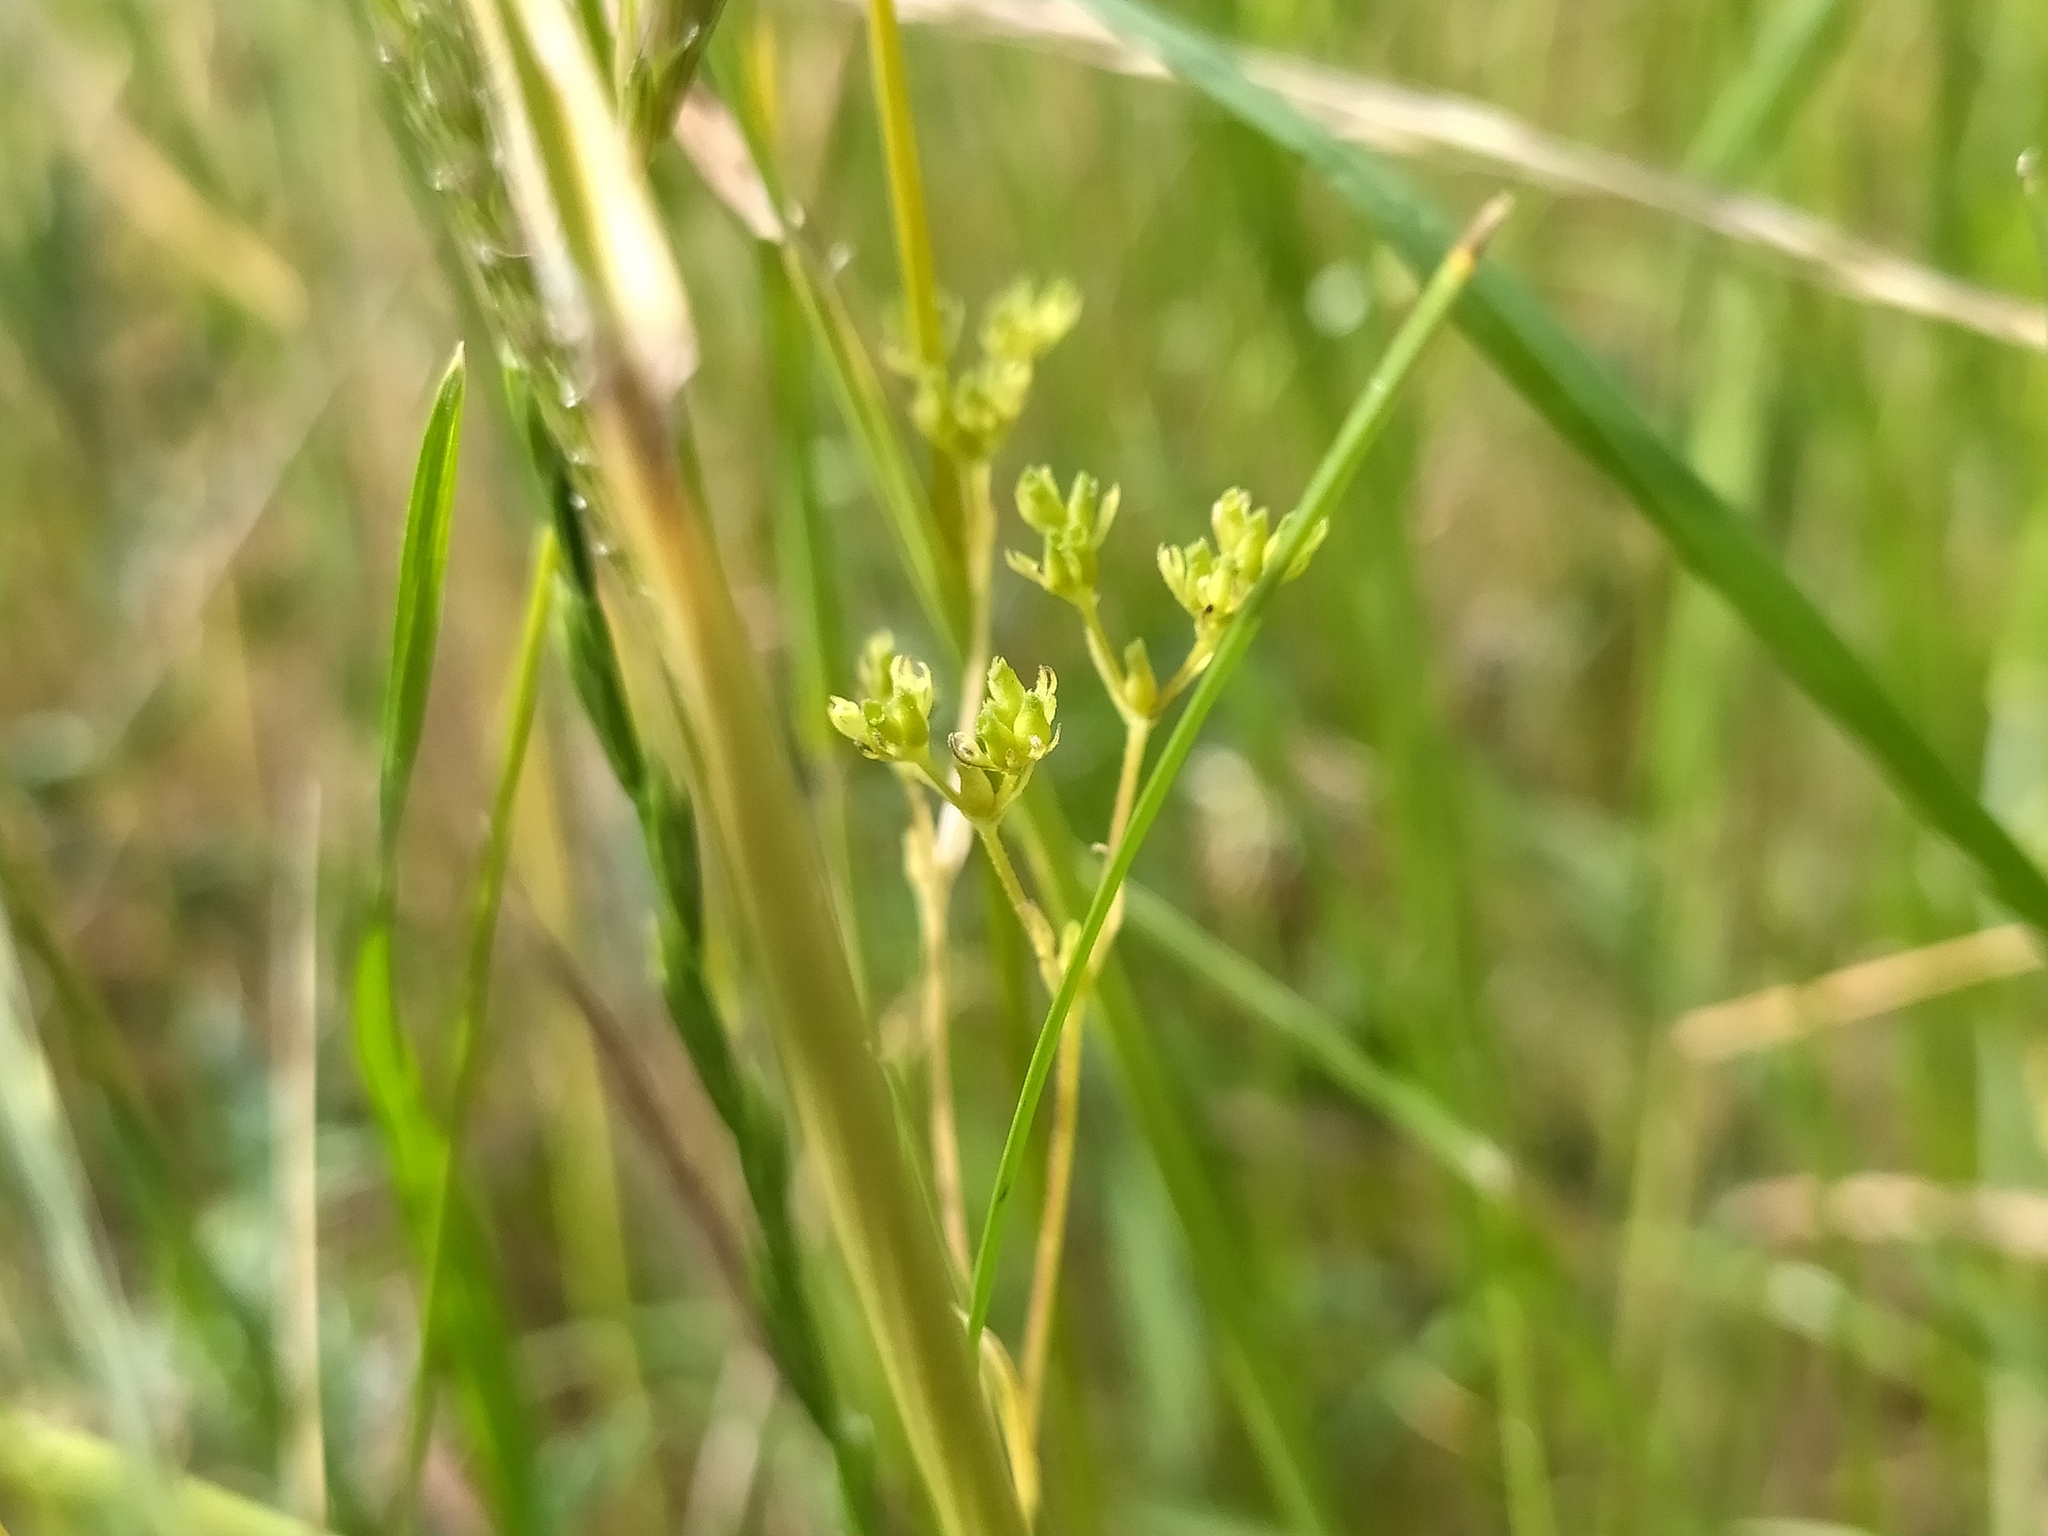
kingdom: Plantae
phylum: Tracheophyta
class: Magnoliopsida
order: Dipsacales
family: Caprifoliaceae
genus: Valerianella
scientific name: Valerianella dentata
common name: Narrow-fruited cornsalad
